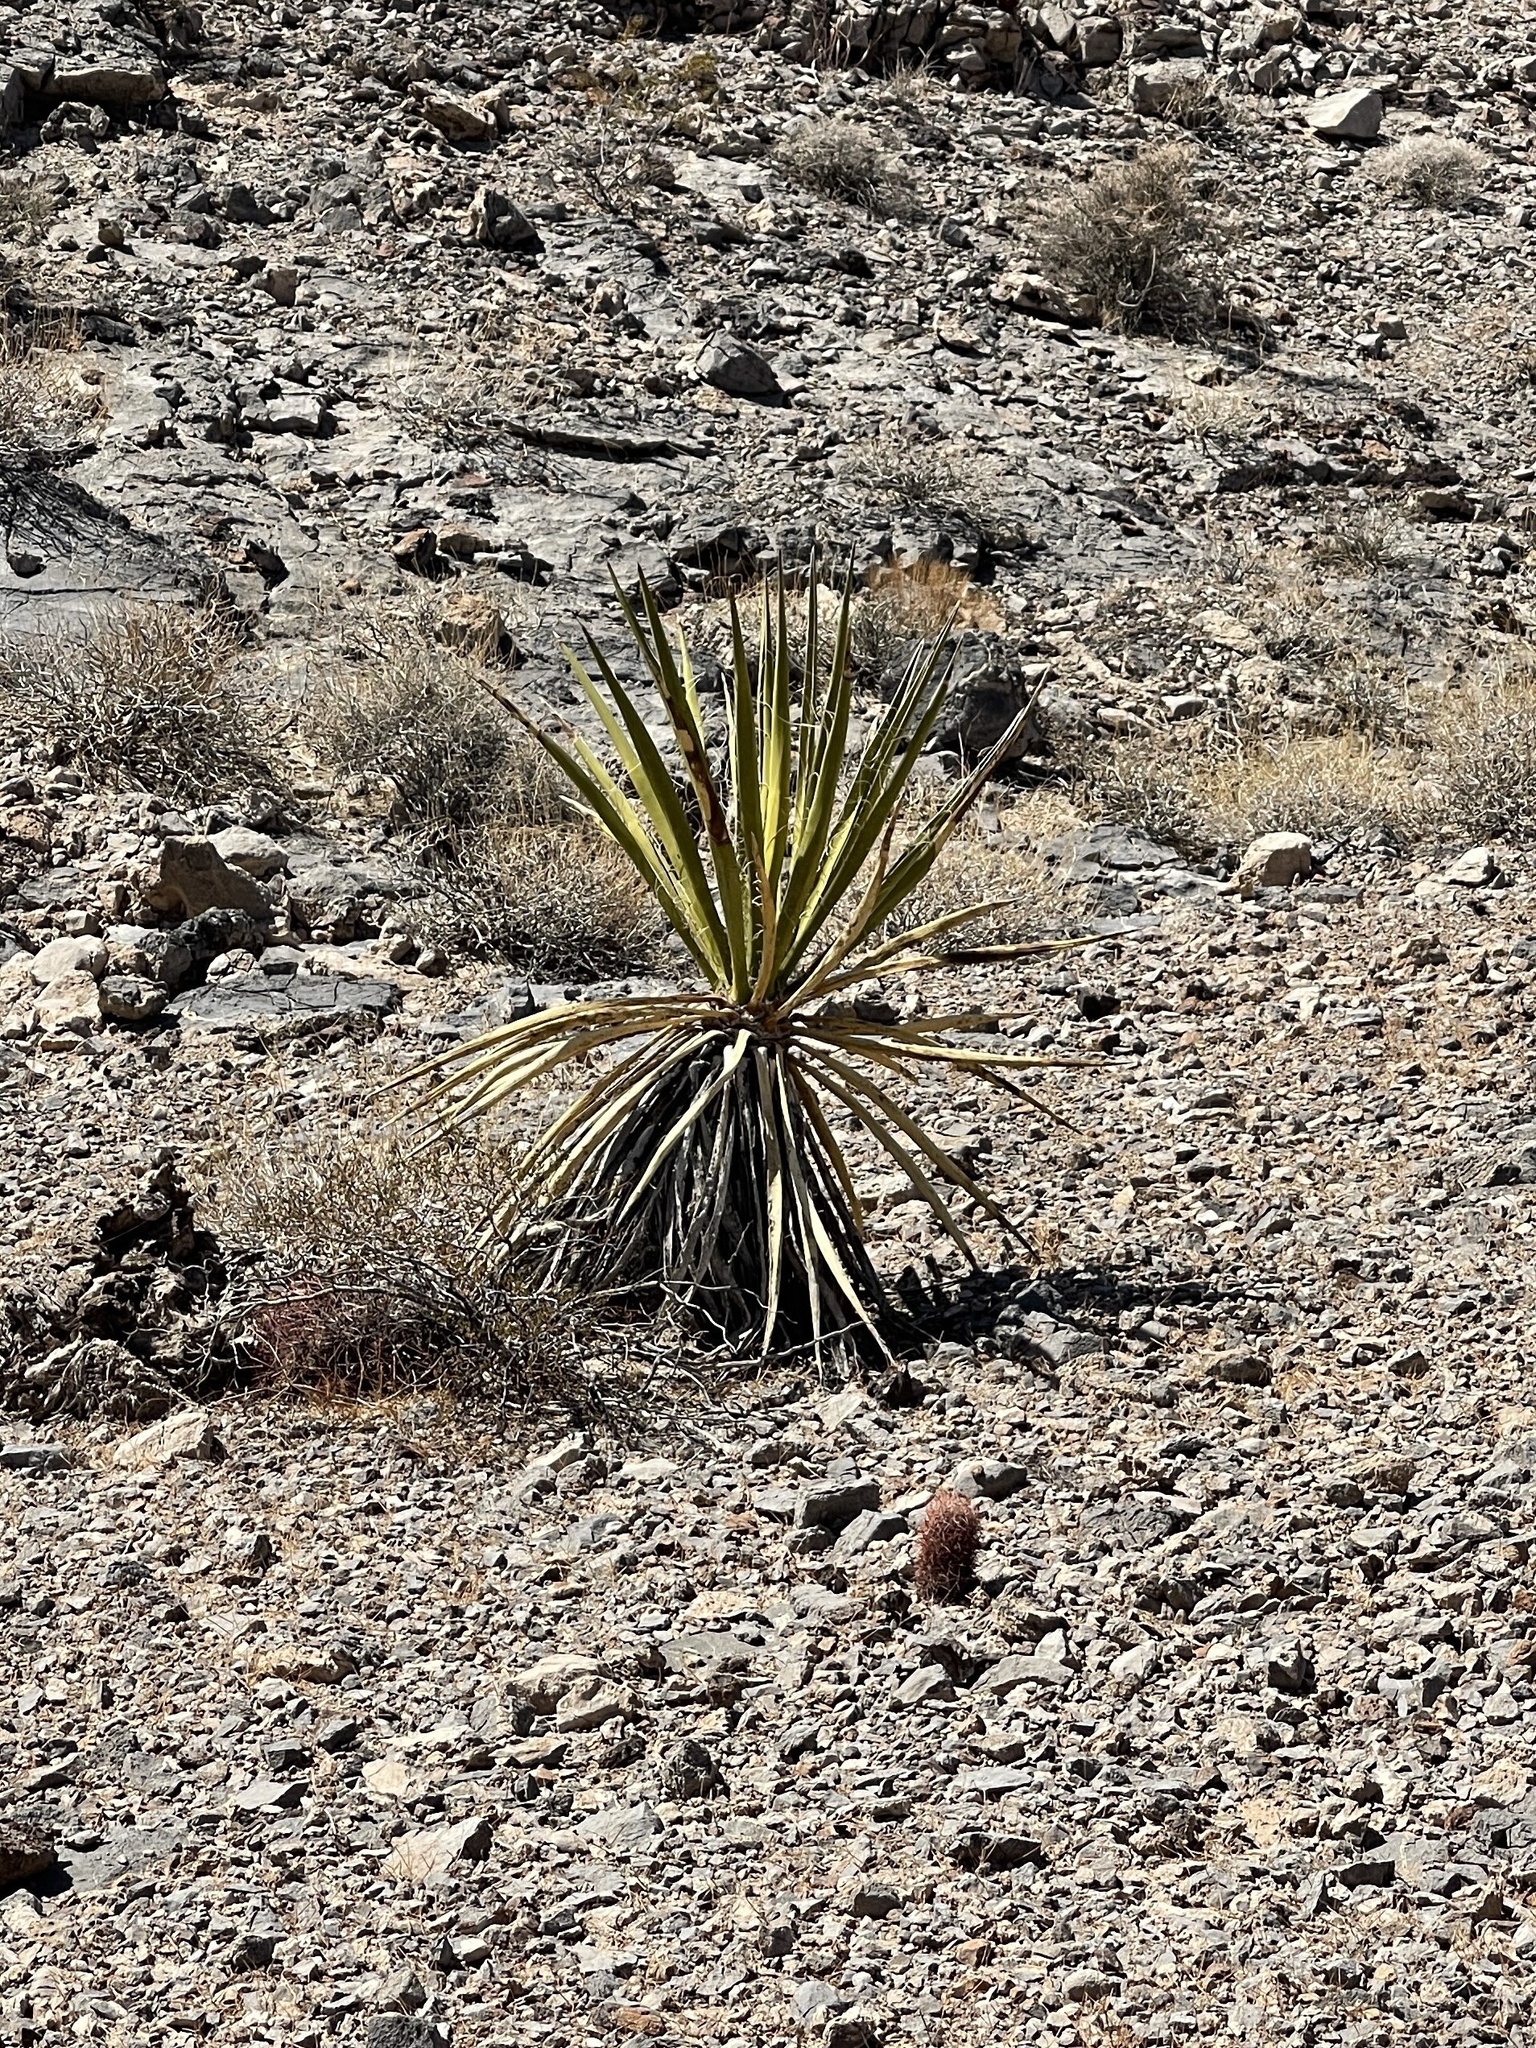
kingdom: Plantae
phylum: Tracheophyta
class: Liliopsida
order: Asparagales
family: Asparagaceae
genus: Yucca
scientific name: Yucca schidigera
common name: Mojave yucca
